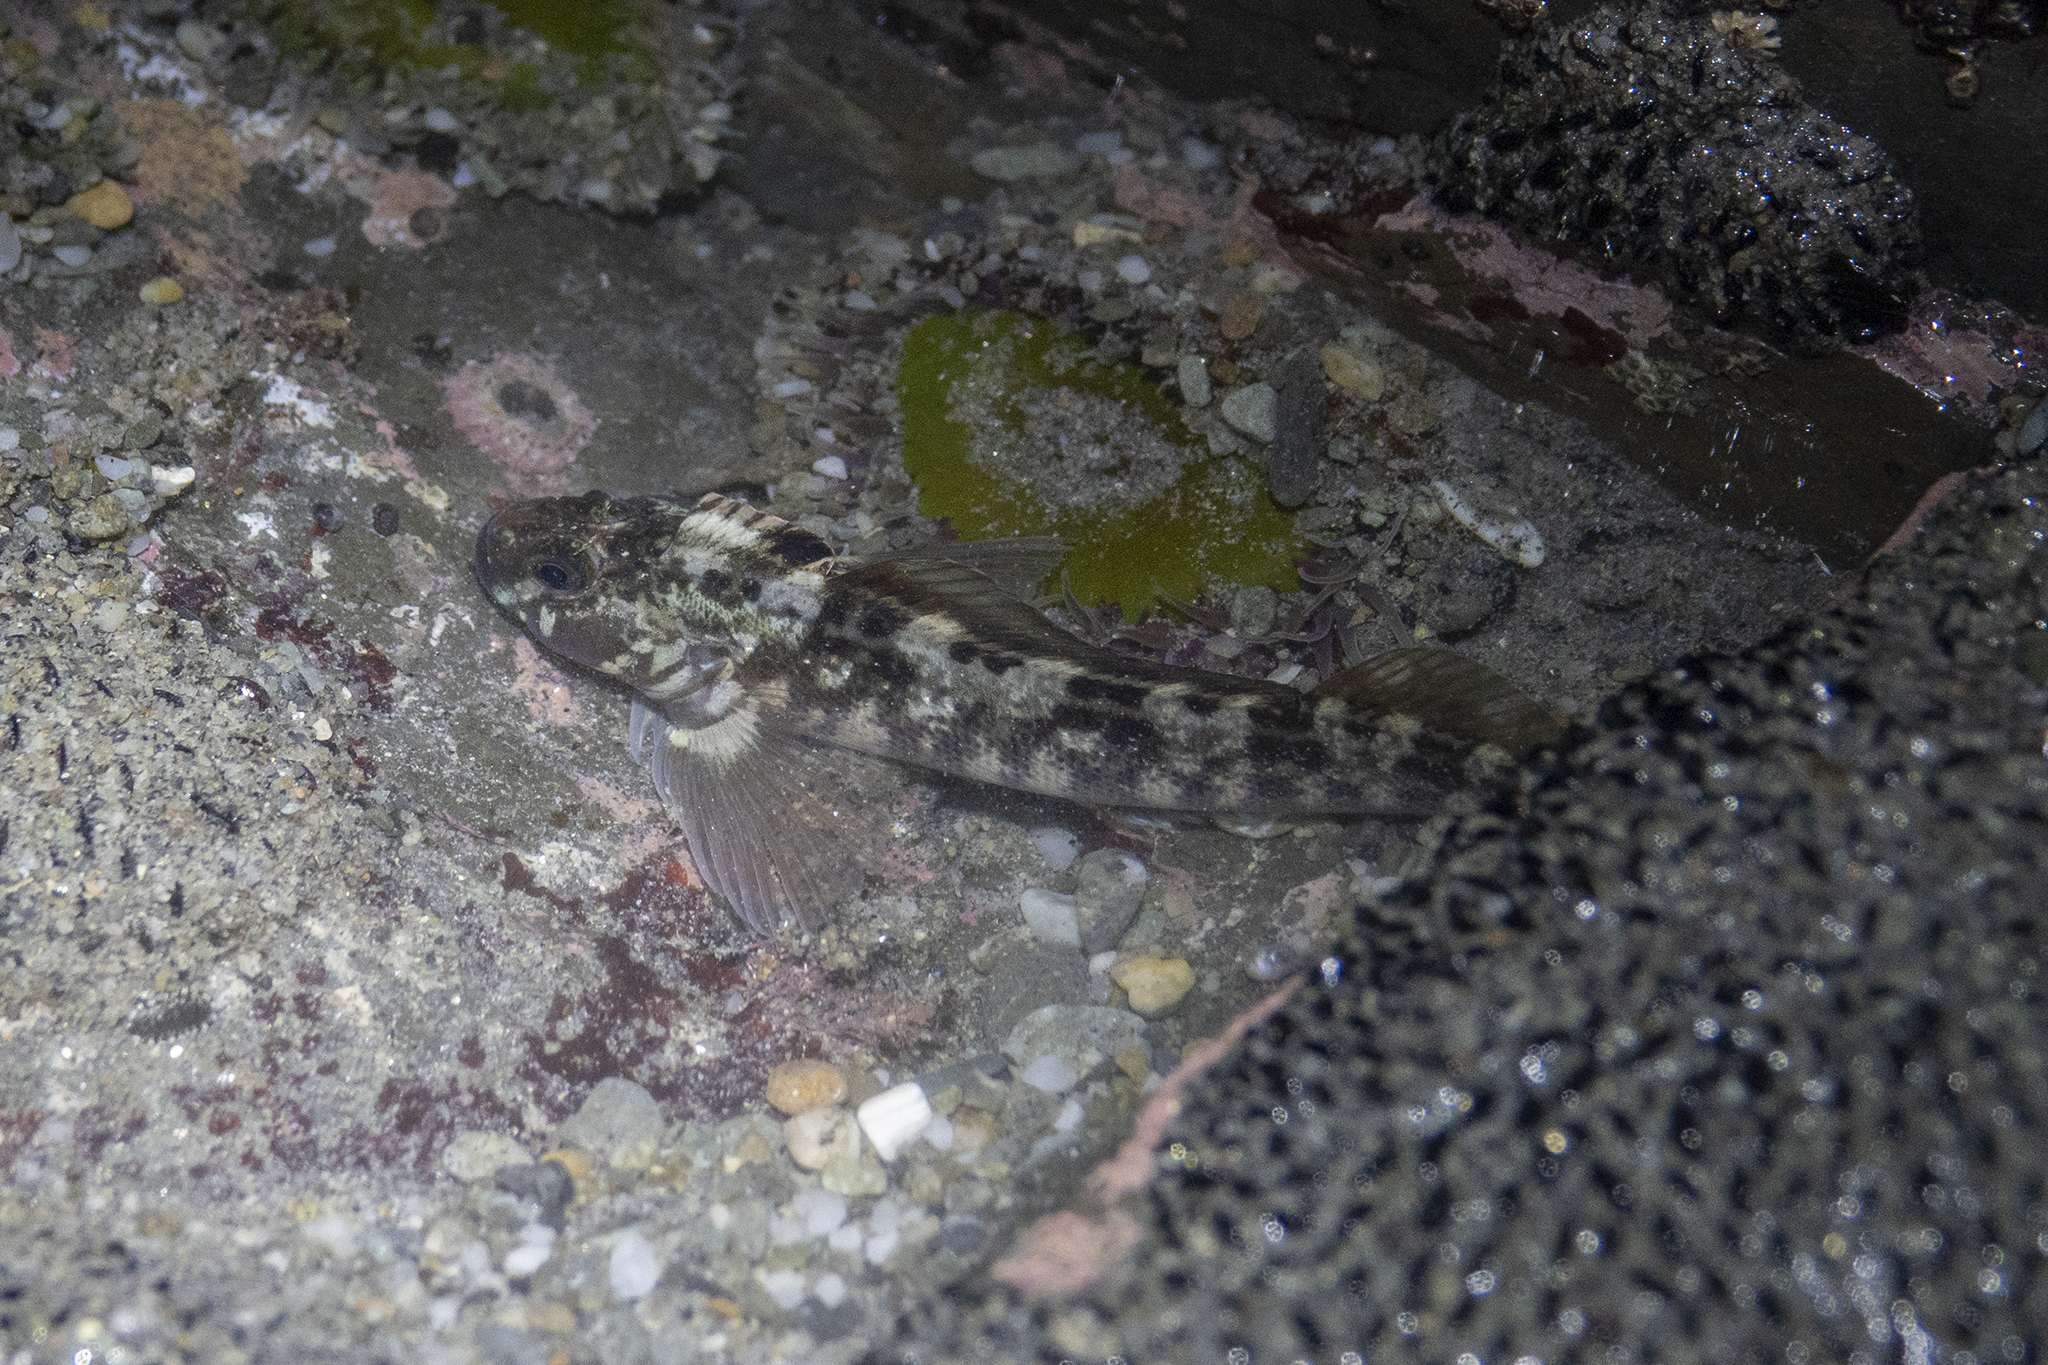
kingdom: Animalia
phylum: Chordata
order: Perciformes
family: Tripterygiidae
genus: Forsterygion
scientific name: Forsterygion gymnotum
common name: Multifid-tentacled robust triplefin
